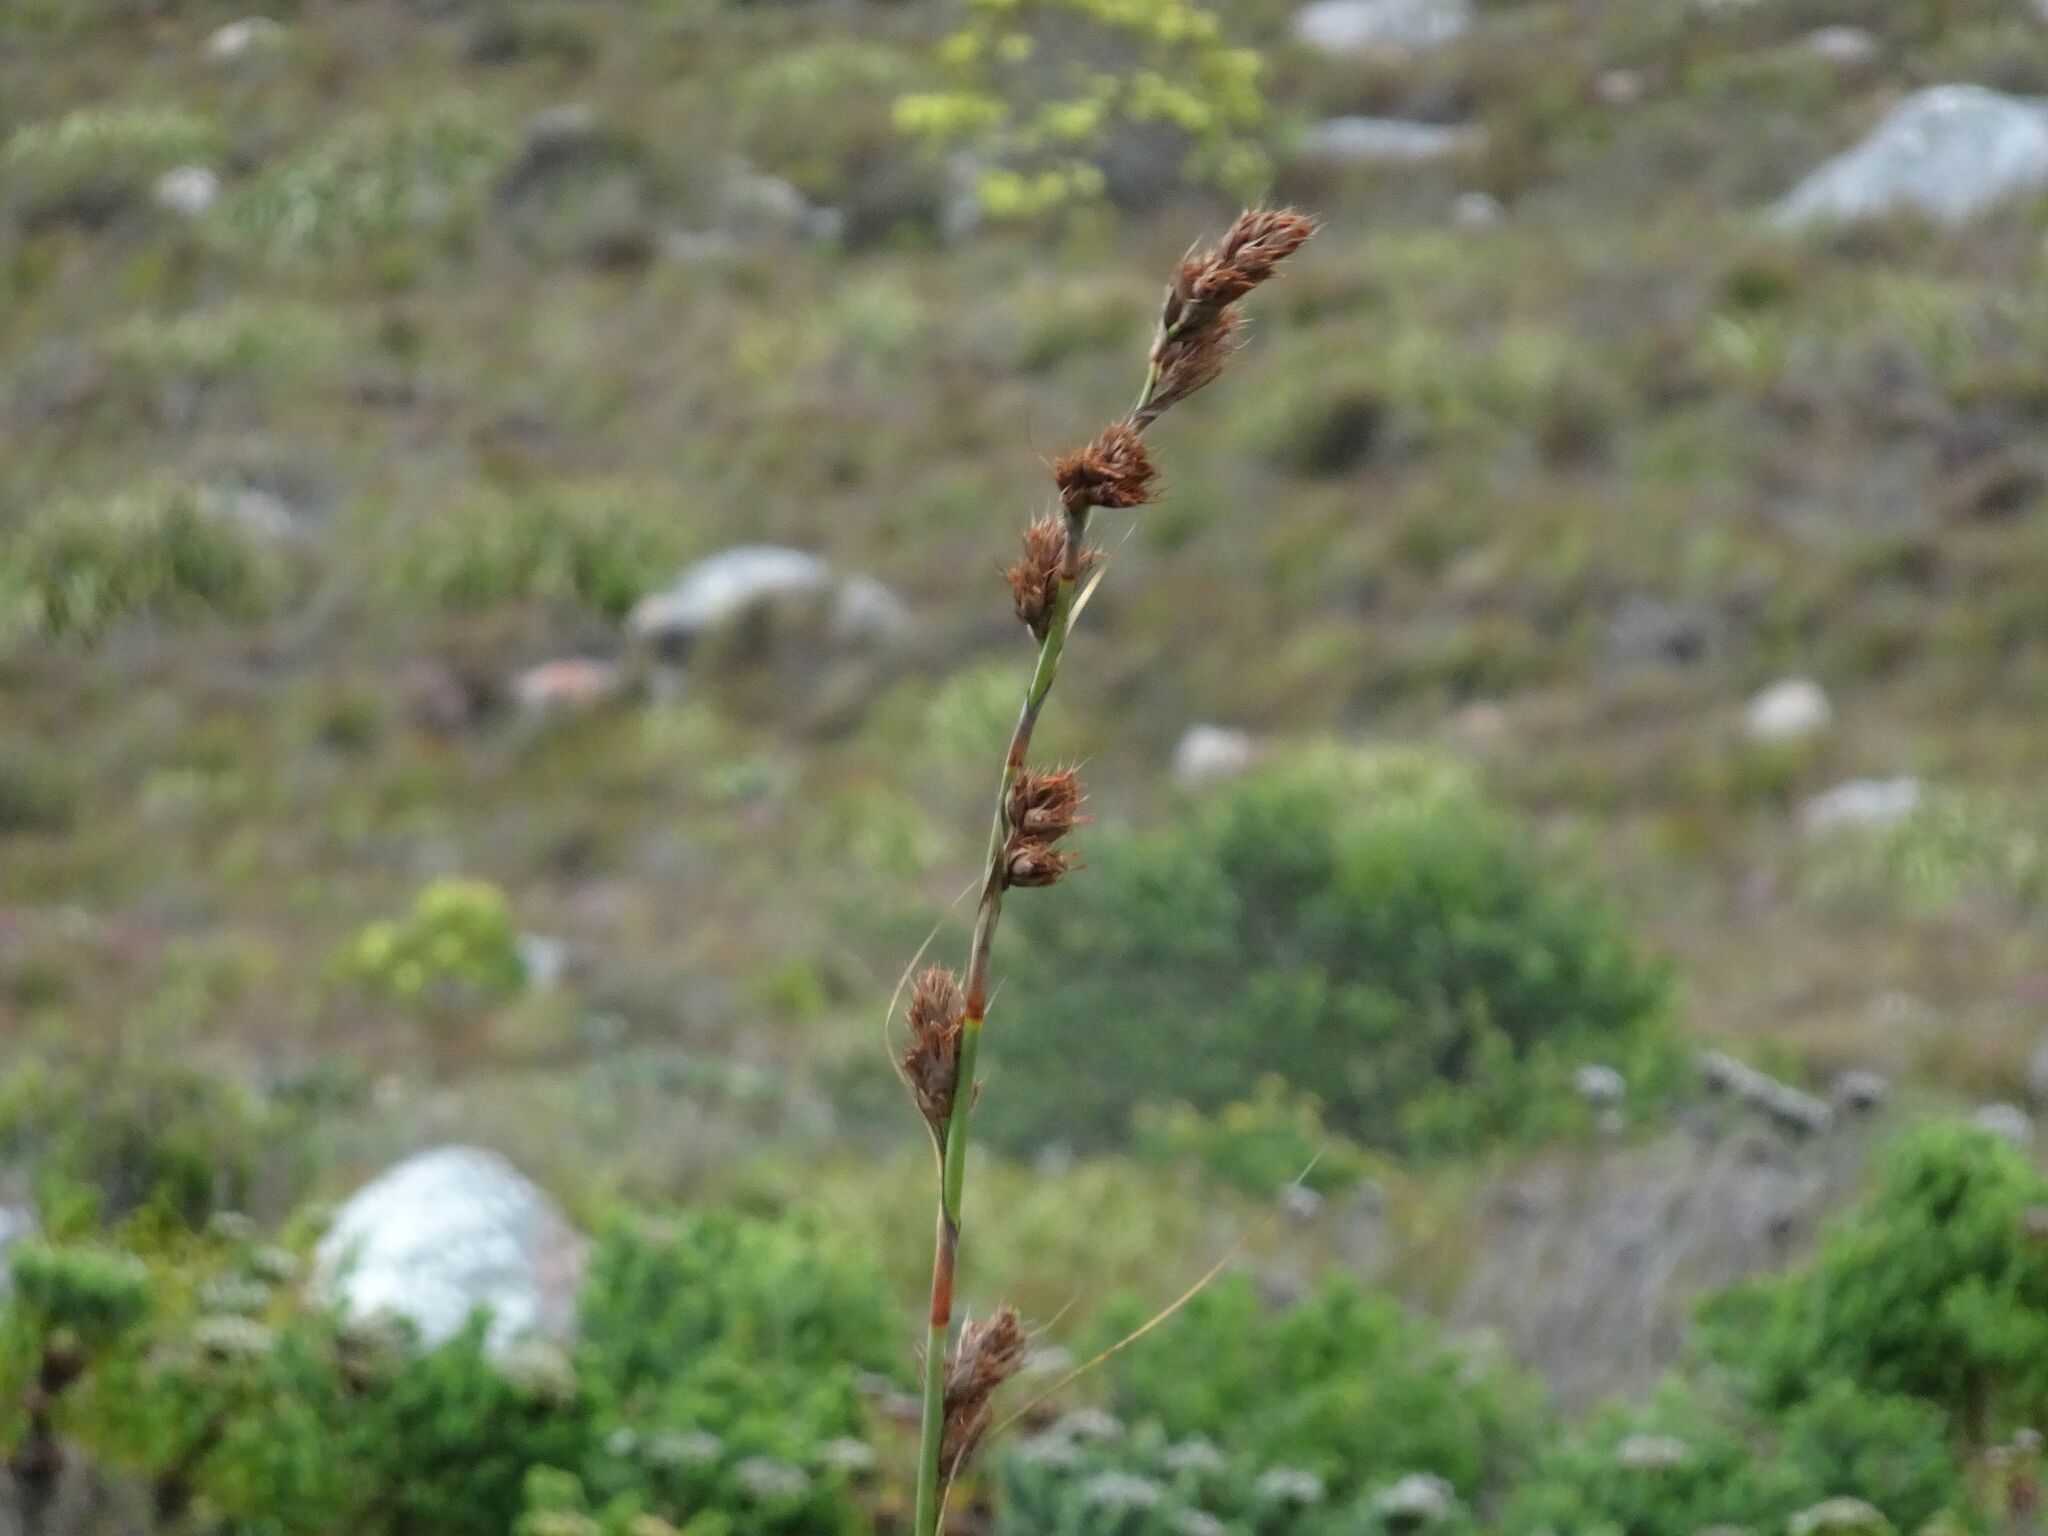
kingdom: Plantae
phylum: Tracheophyta
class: Liliopsida
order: Poales
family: Cyperaceae
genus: Tetraria
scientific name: Tetraria thermalis
